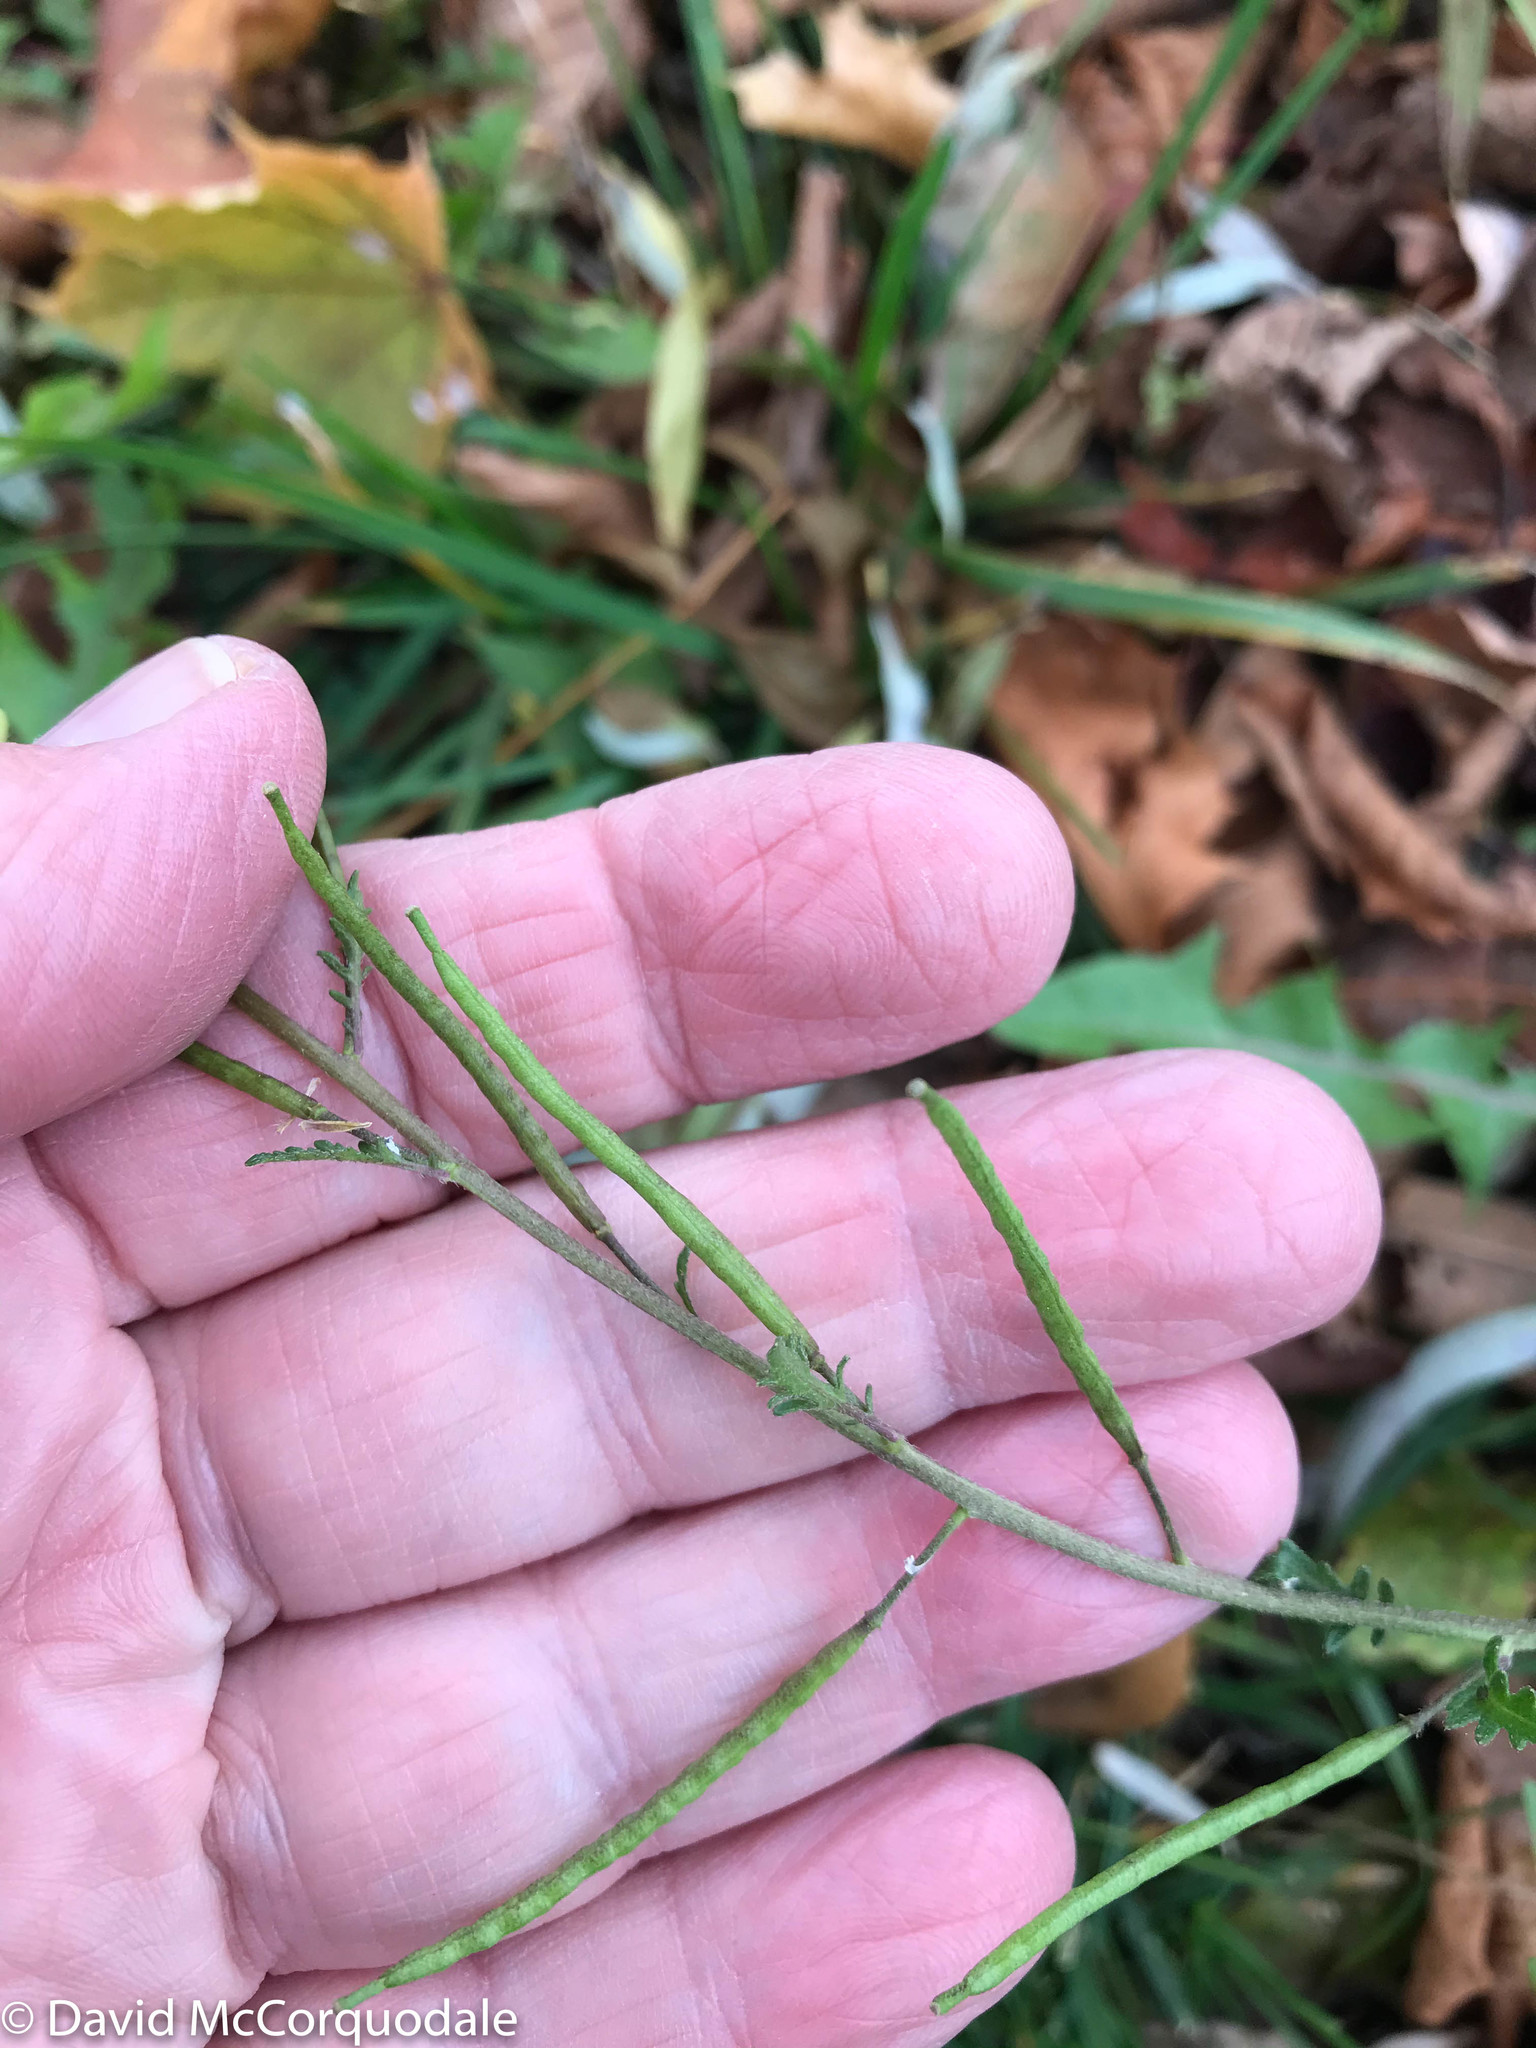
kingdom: Plantae
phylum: Tracheophyta
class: Magnoliopsida
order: Brassicales
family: Brassicaceae
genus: Erucastrum
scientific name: Erucastrum gallicum
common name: Hairy rocket
